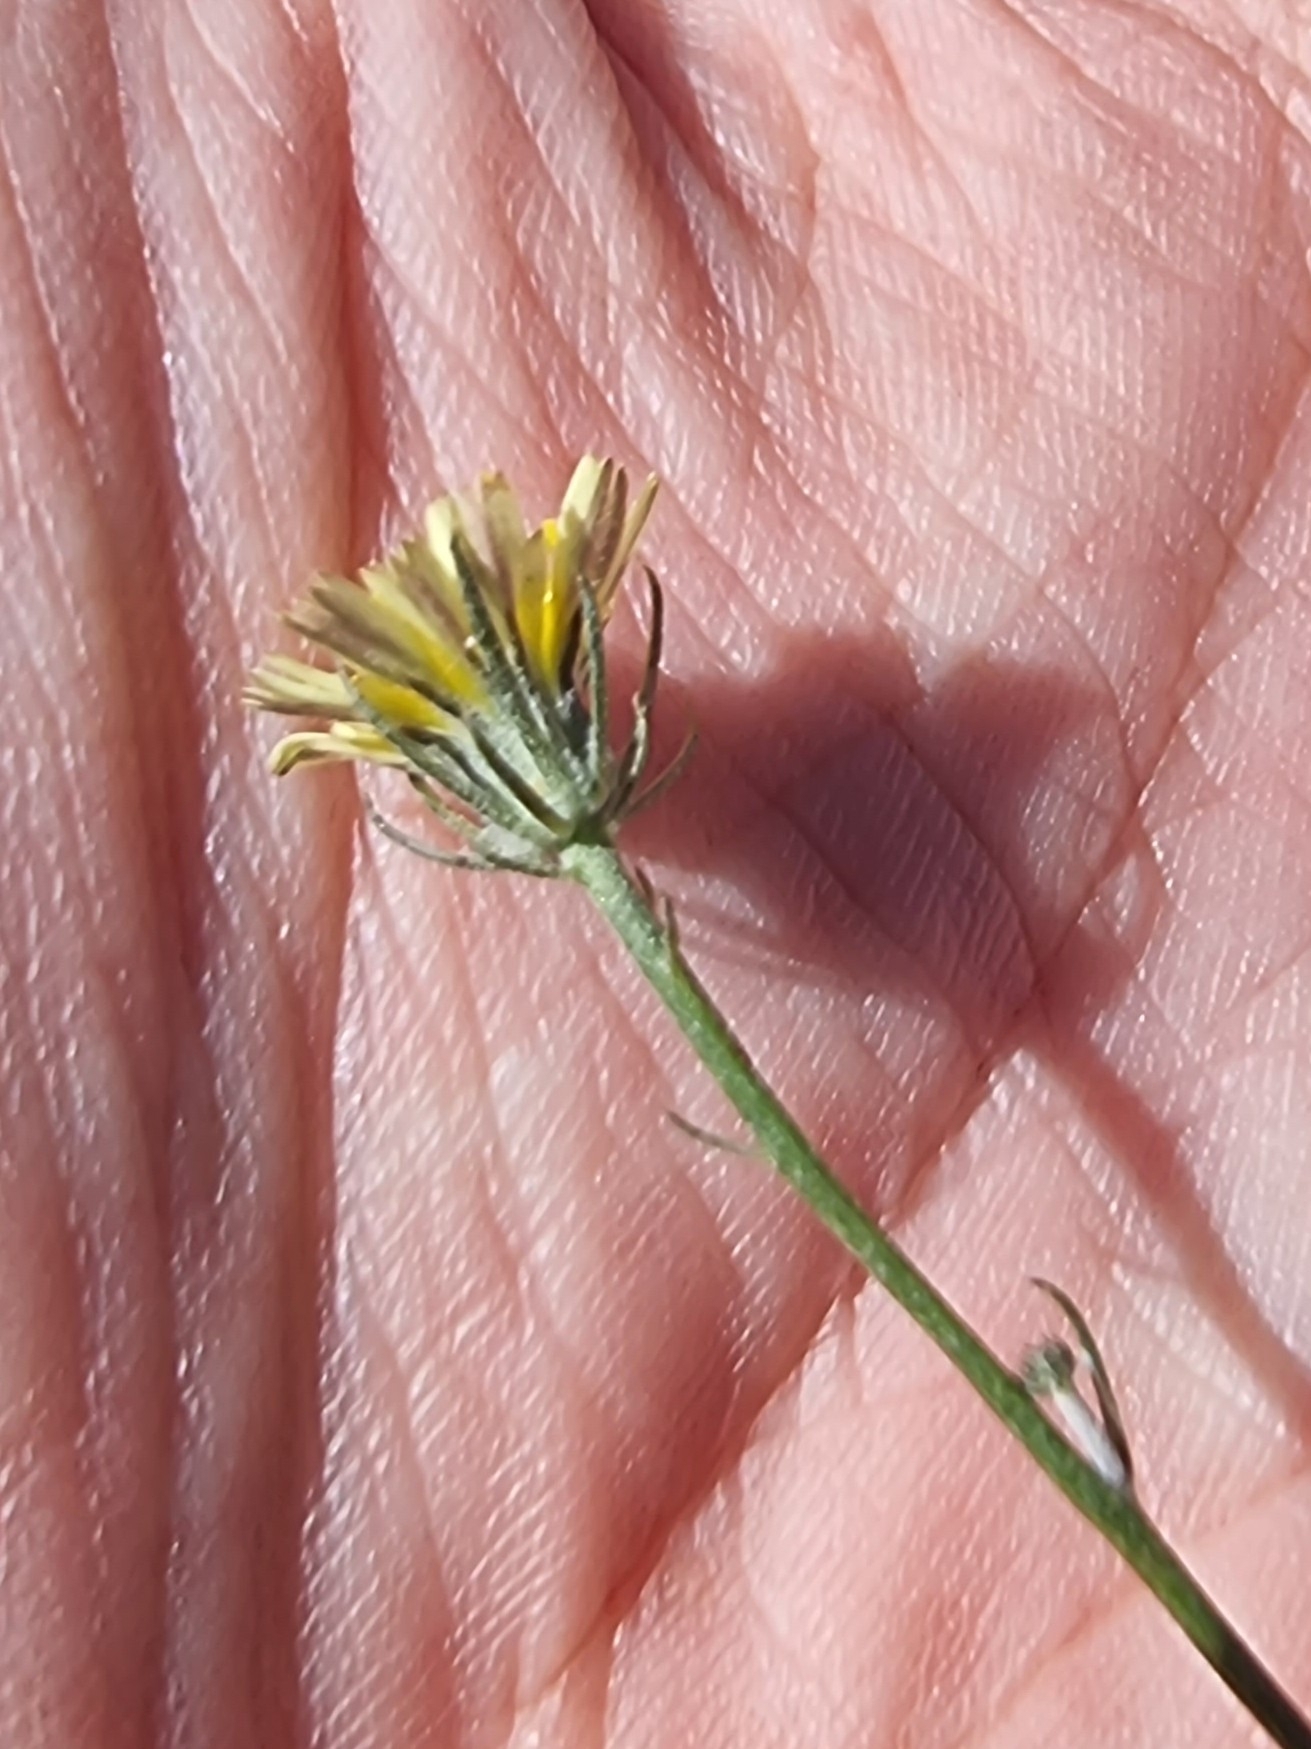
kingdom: Plantae
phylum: Tracheophyta
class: Magnoliopsida
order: Asterales
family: Asteraceae
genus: Tolpis
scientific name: Tolpis umbellata
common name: Yellow hawkweed
